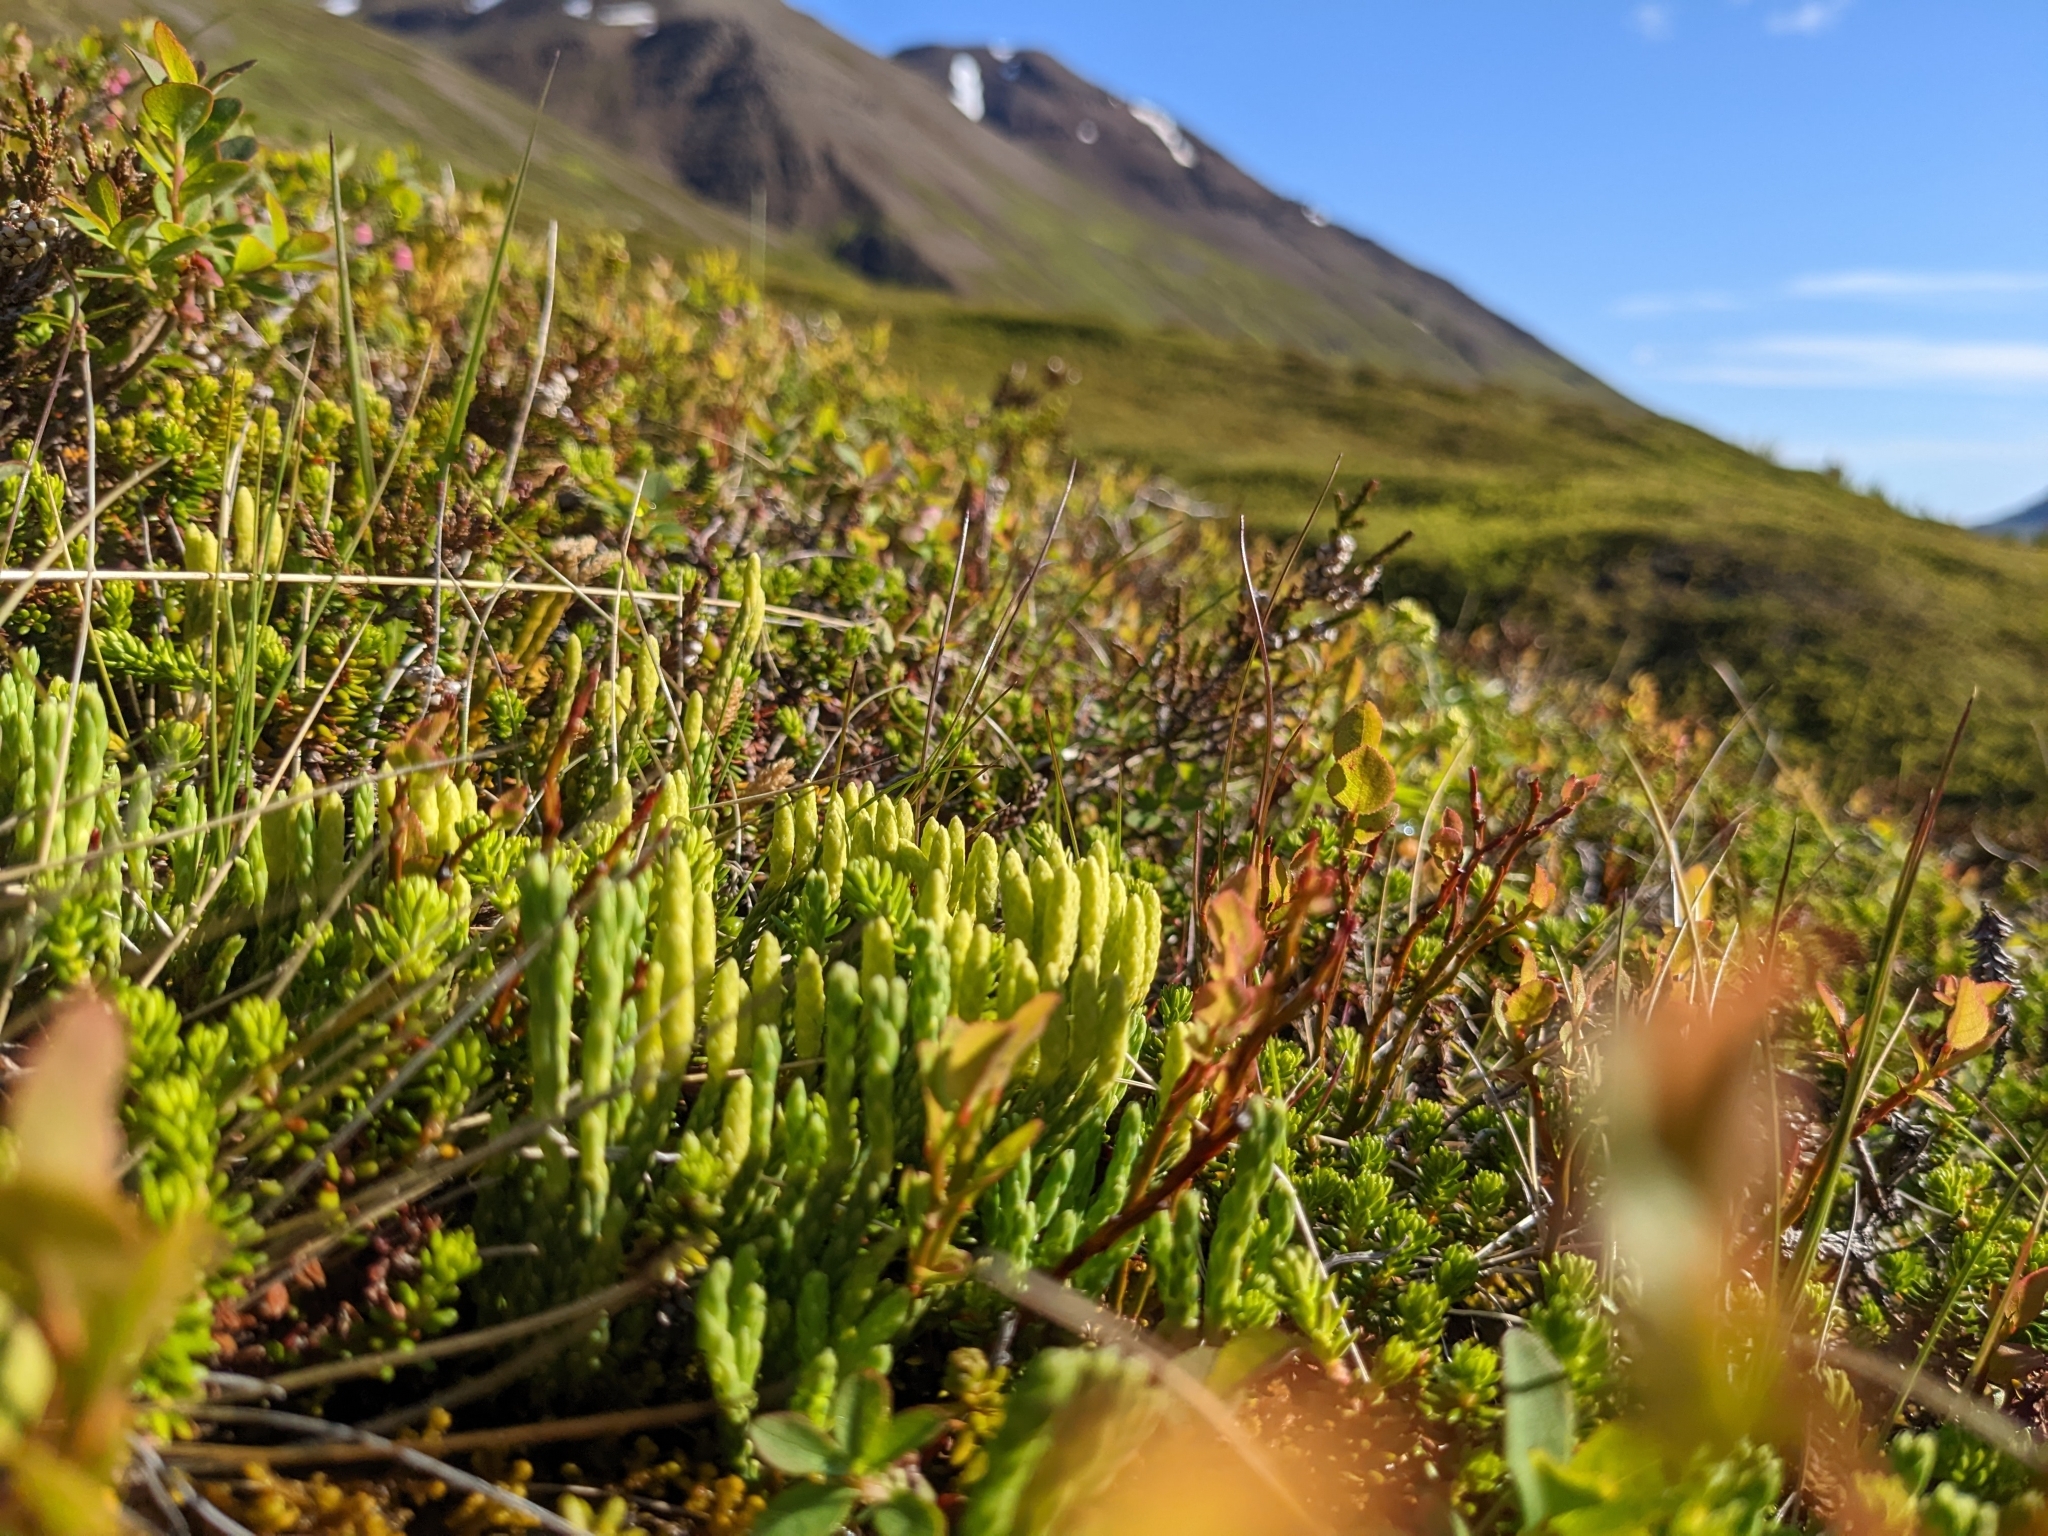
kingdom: Plantae
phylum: Tracheophyta
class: Lycopodiopsida
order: Lycopodiales
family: Lycopodiaceae
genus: Diphasiastrum
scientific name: Diphasiastrum alpinum
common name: Alpine clubmoss
